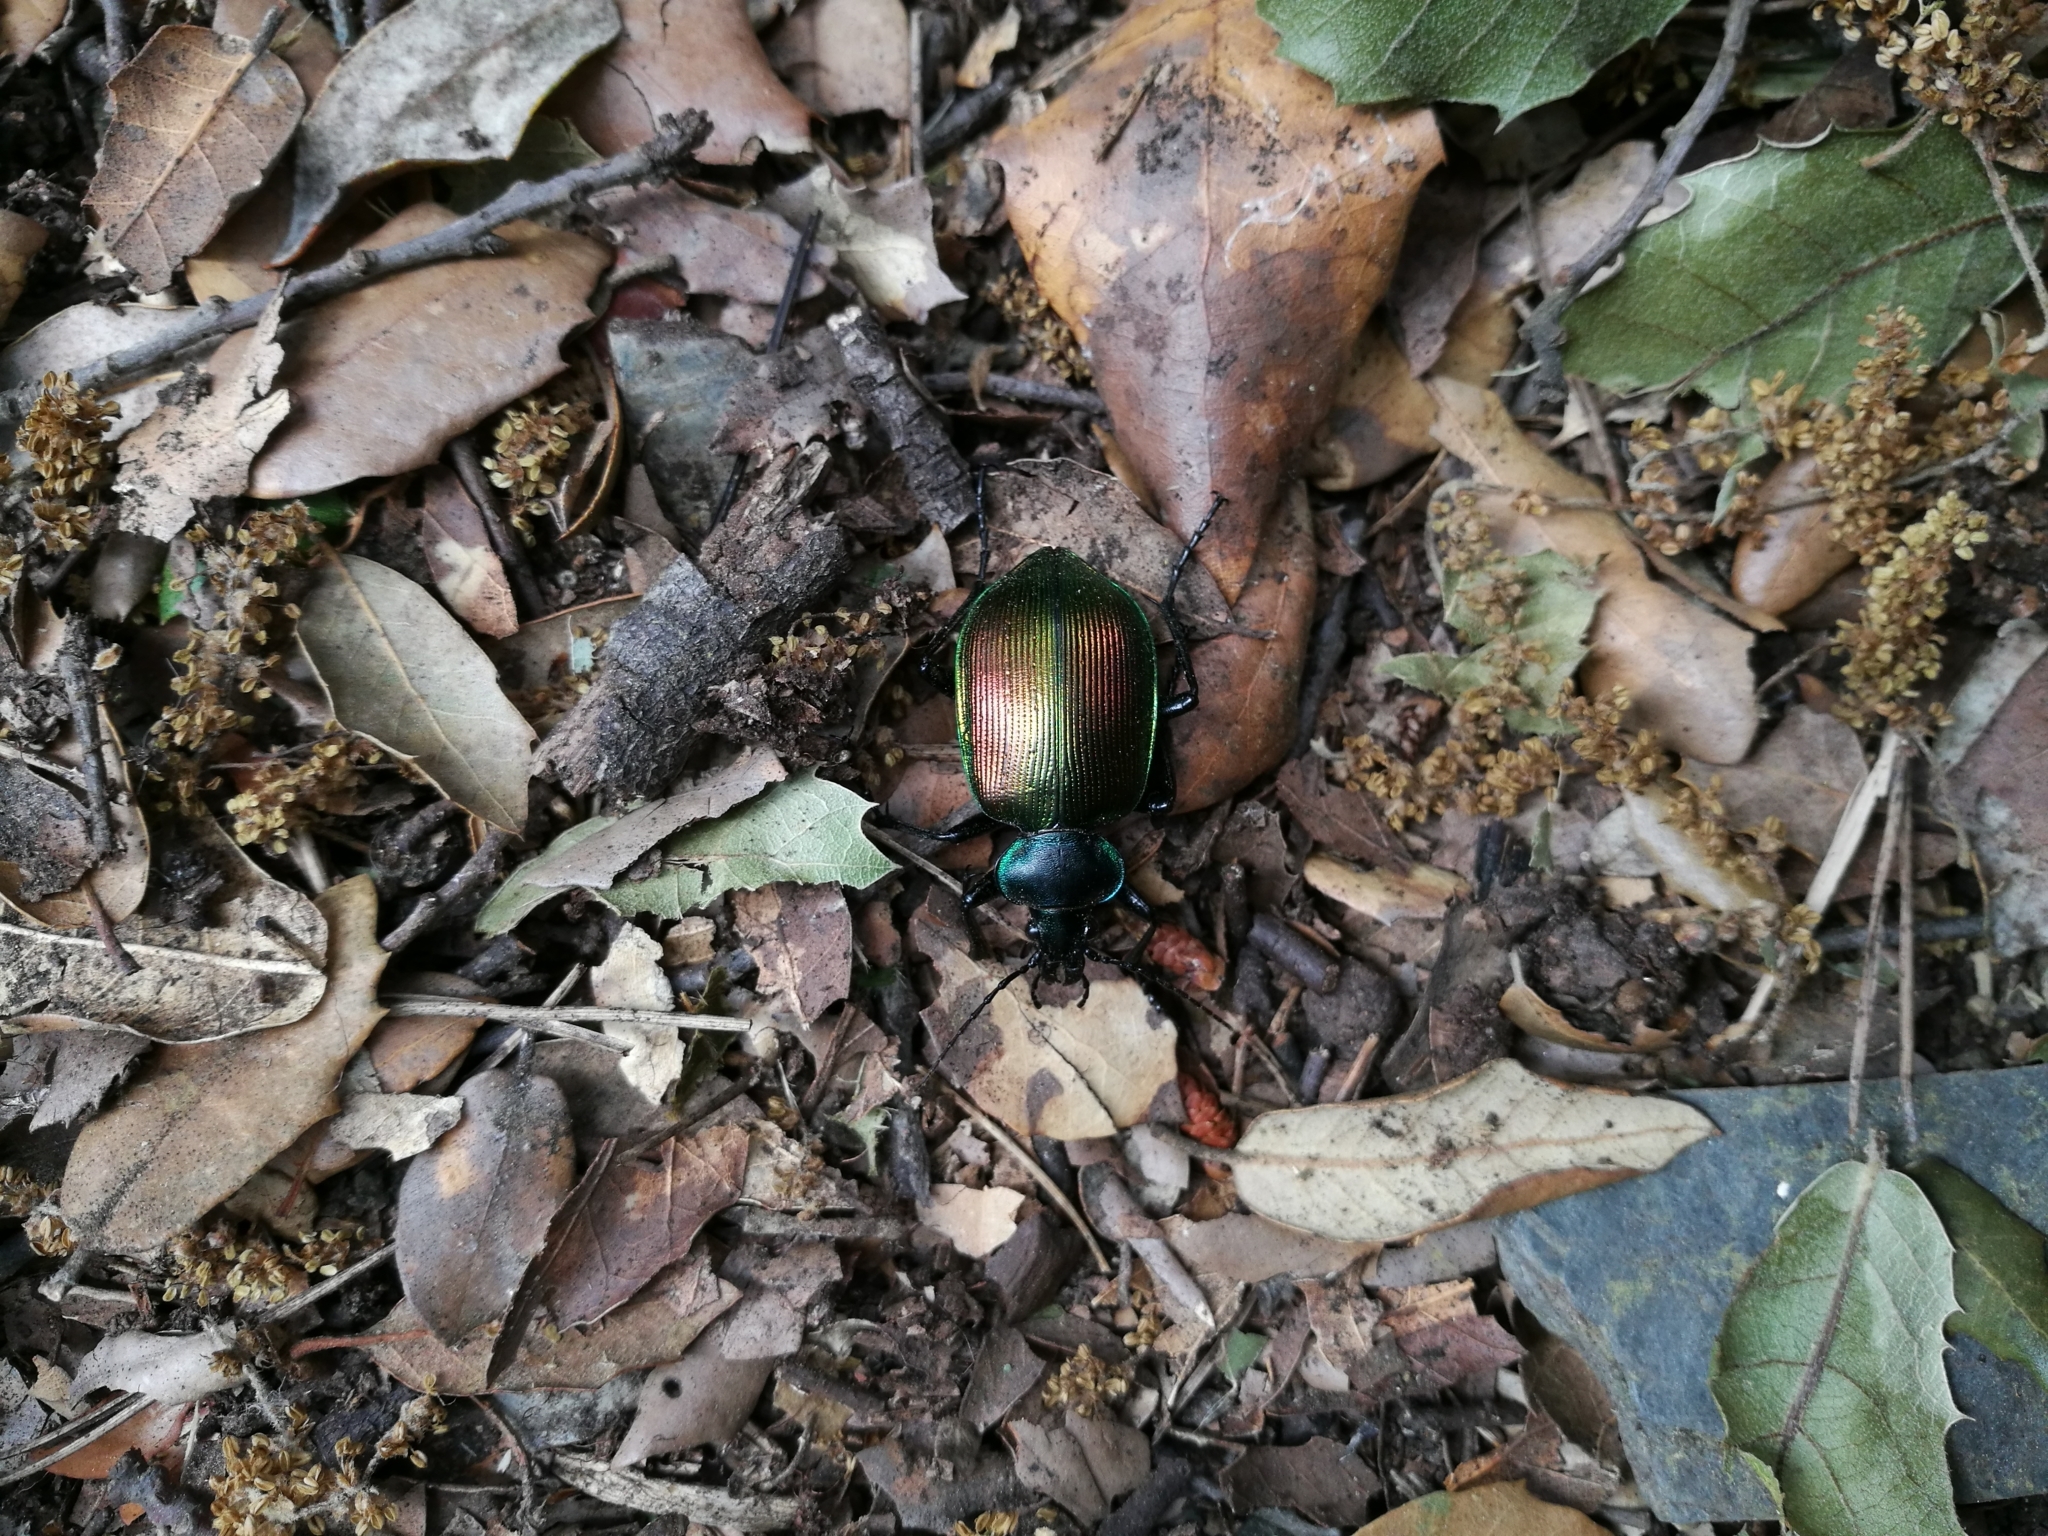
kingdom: Animalia
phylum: Arthropoda
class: Insecta
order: Coleoptera
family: Carabidae
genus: Calosoma
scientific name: Calosoma sycophanta
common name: Forest caterpillar hunter
